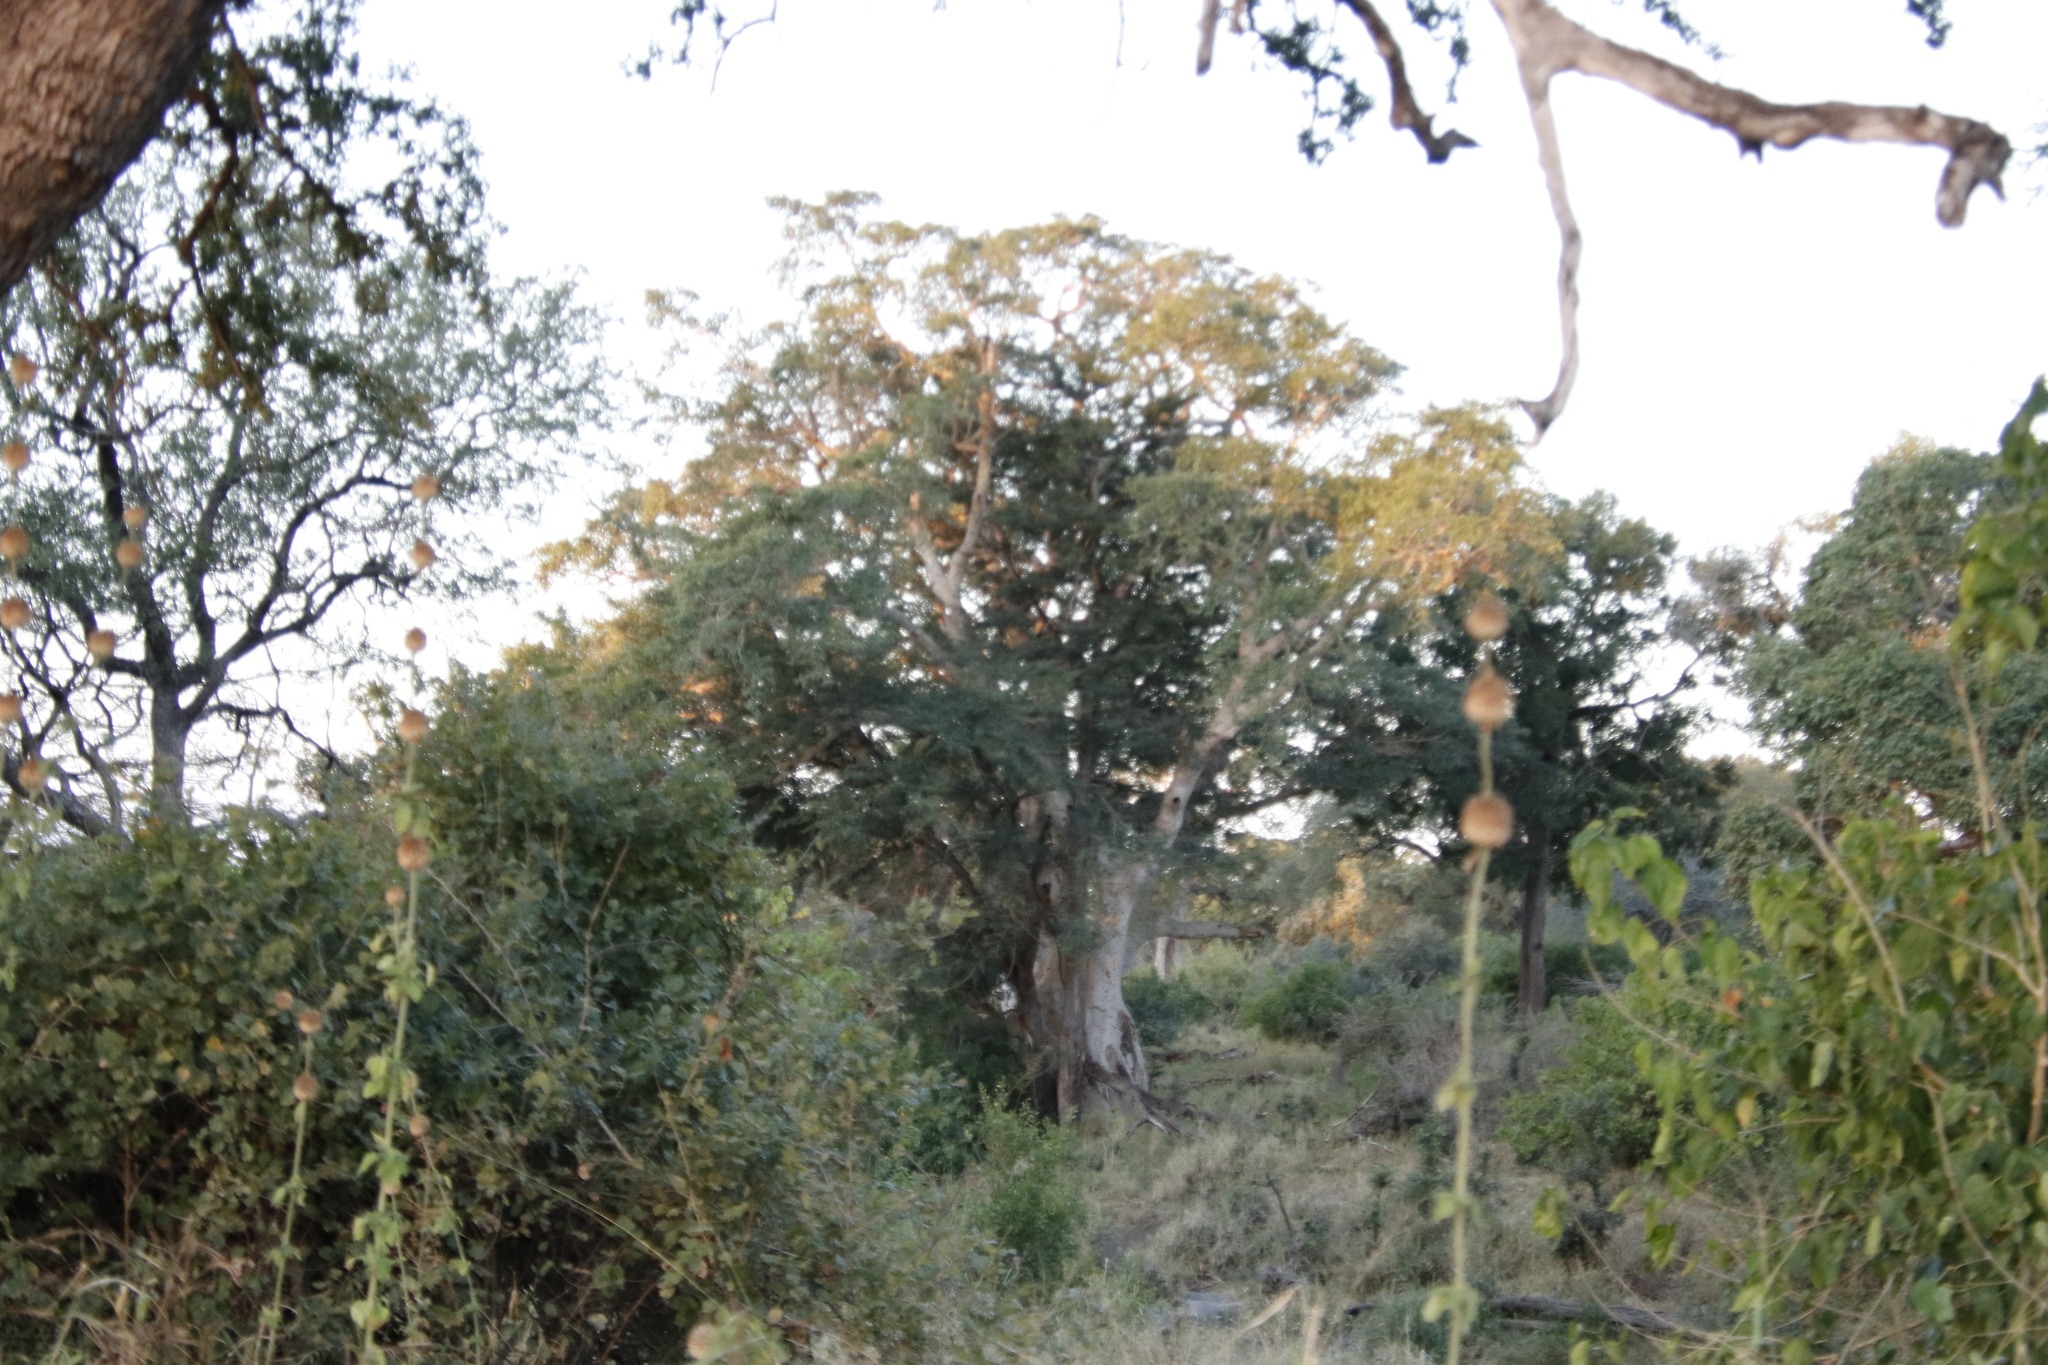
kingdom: Plantae
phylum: Tracheophyta
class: Magnoliopsida
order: Rosales
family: Moraceae
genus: Ficus
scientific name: Ficus sycomorus
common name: Sycomore
